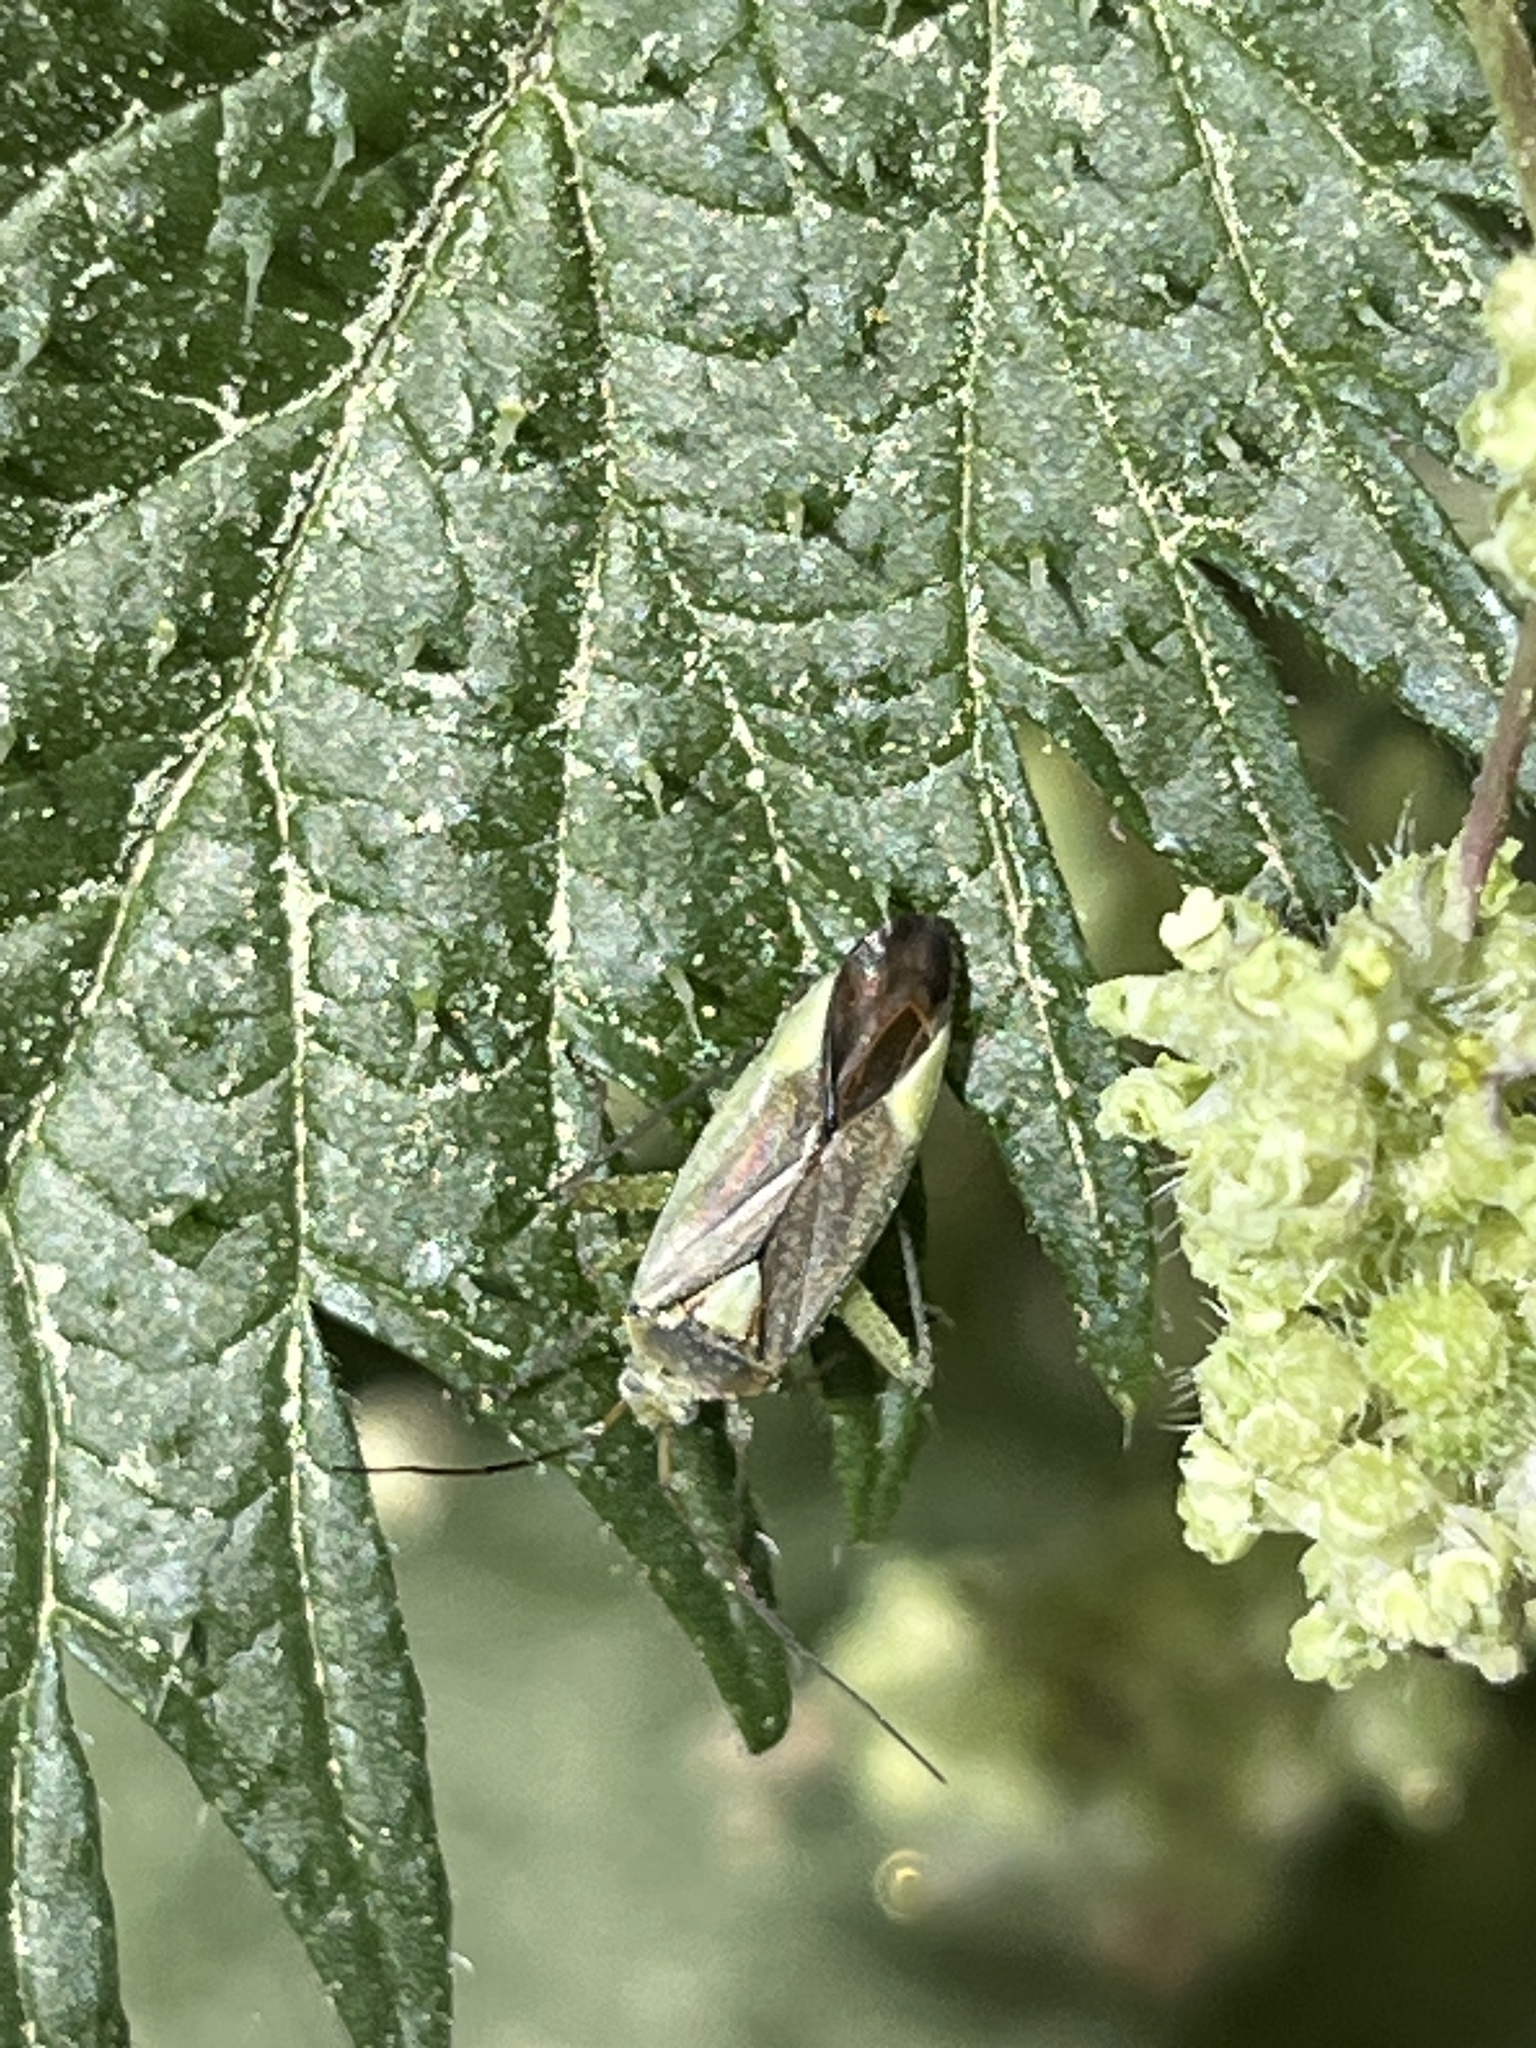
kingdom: Animalia
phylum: Arthropoda
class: Insecta
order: Hemiptera
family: Miridae
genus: Closterotomus
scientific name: Closterotomus trivialis
